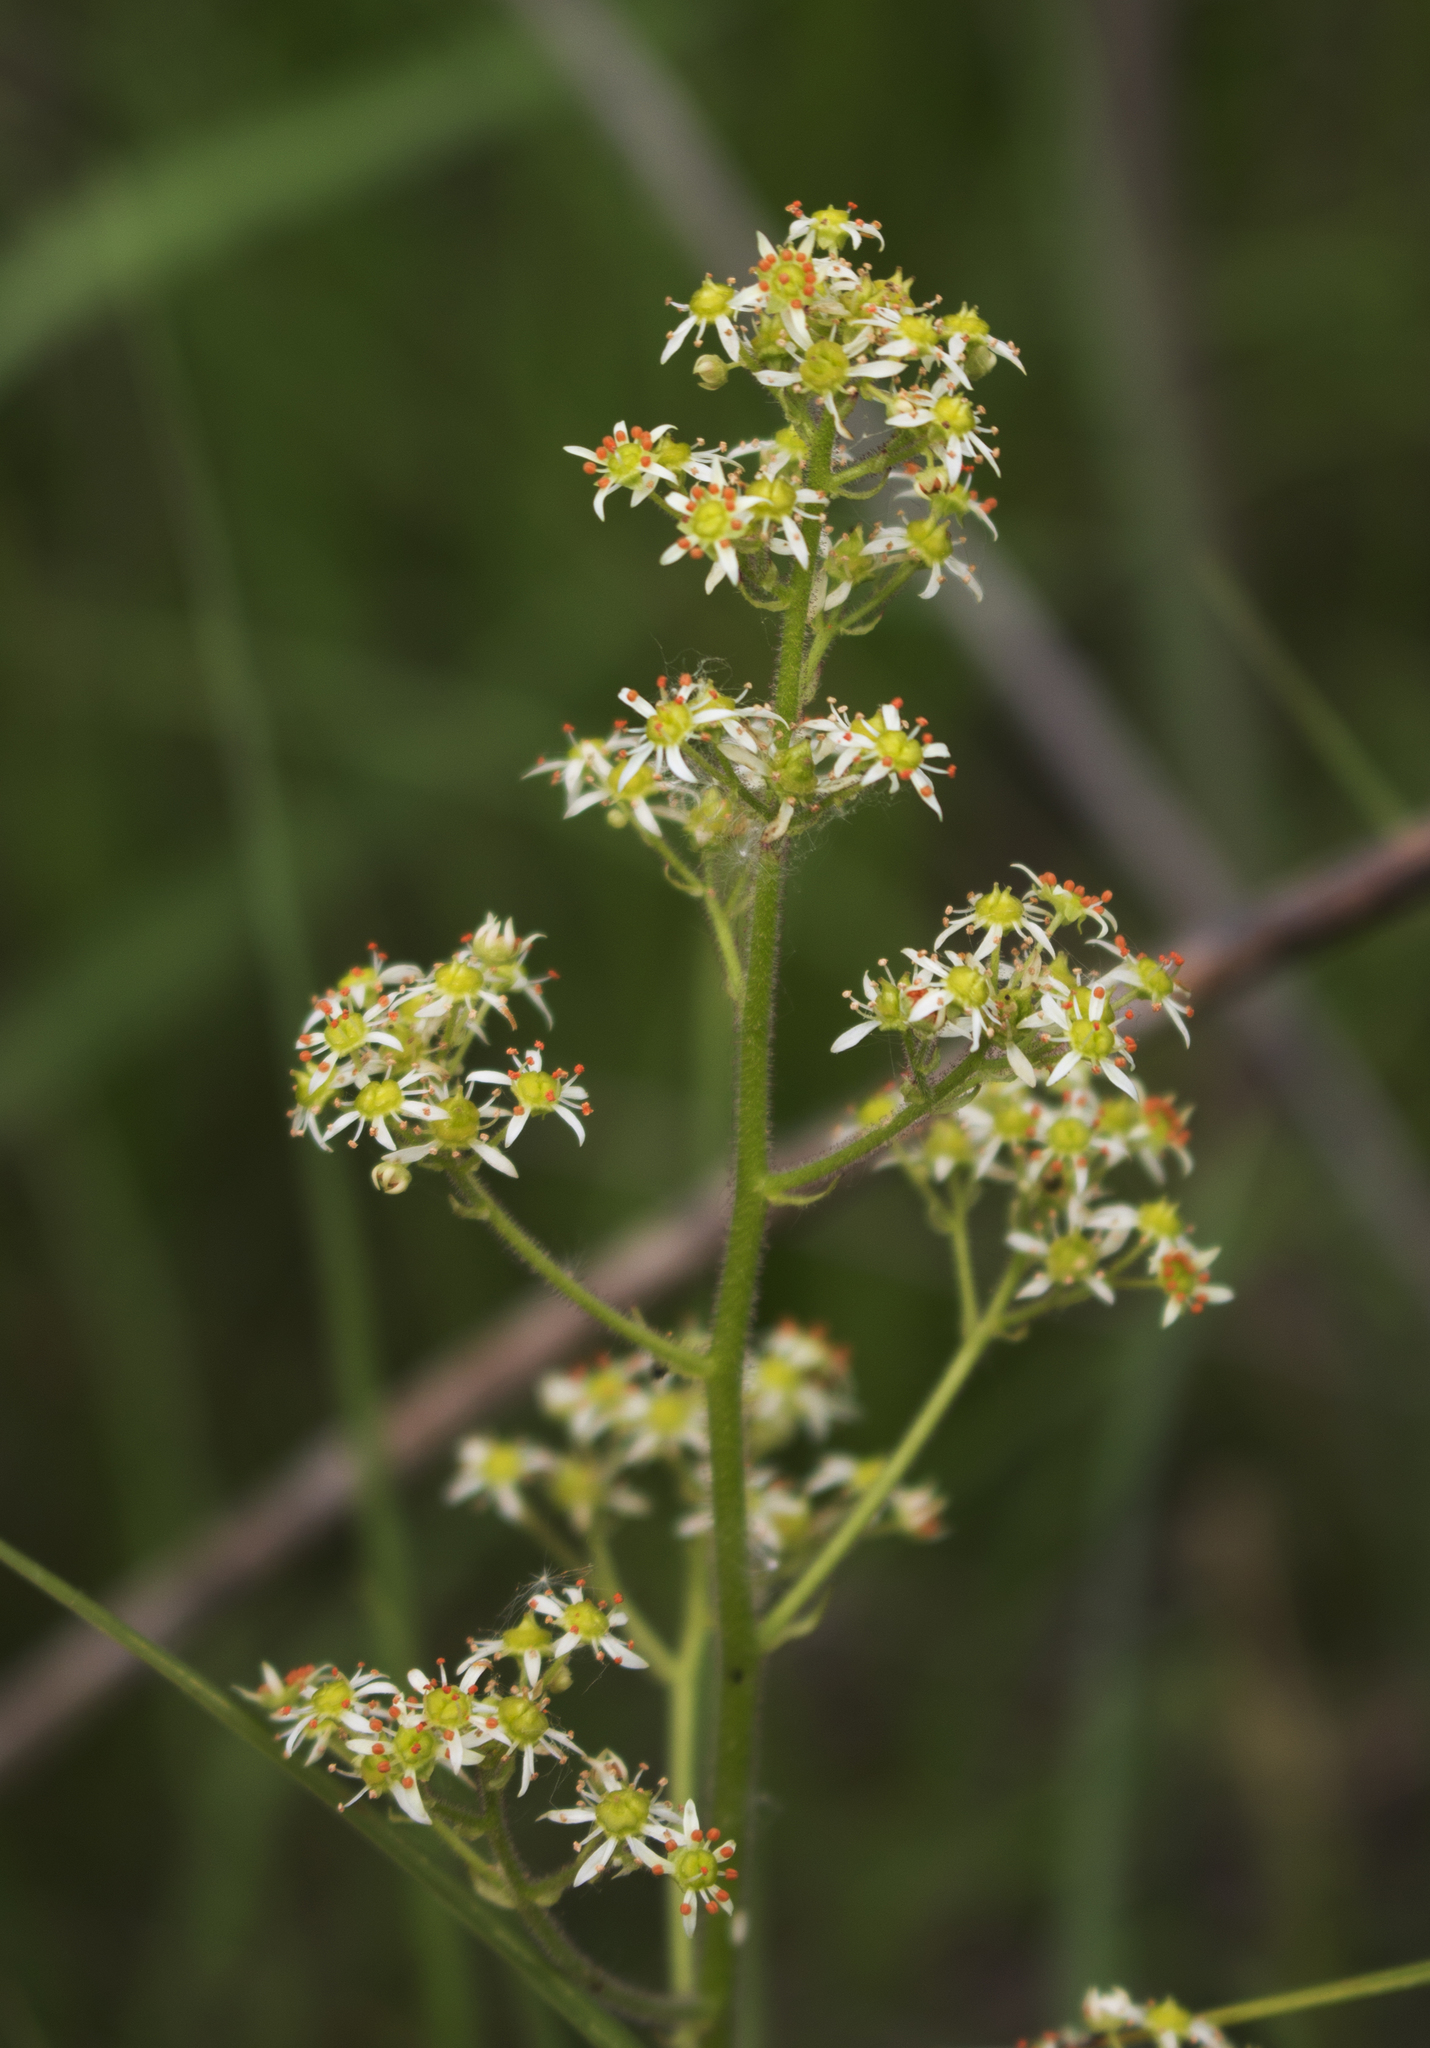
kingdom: Plantae
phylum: Tracheophyta
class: Magnoliopsida
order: Saxifragales
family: Saxifragaceae
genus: Micranthes
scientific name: Micranthes pensylvanica
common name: Marsh saxifrage
